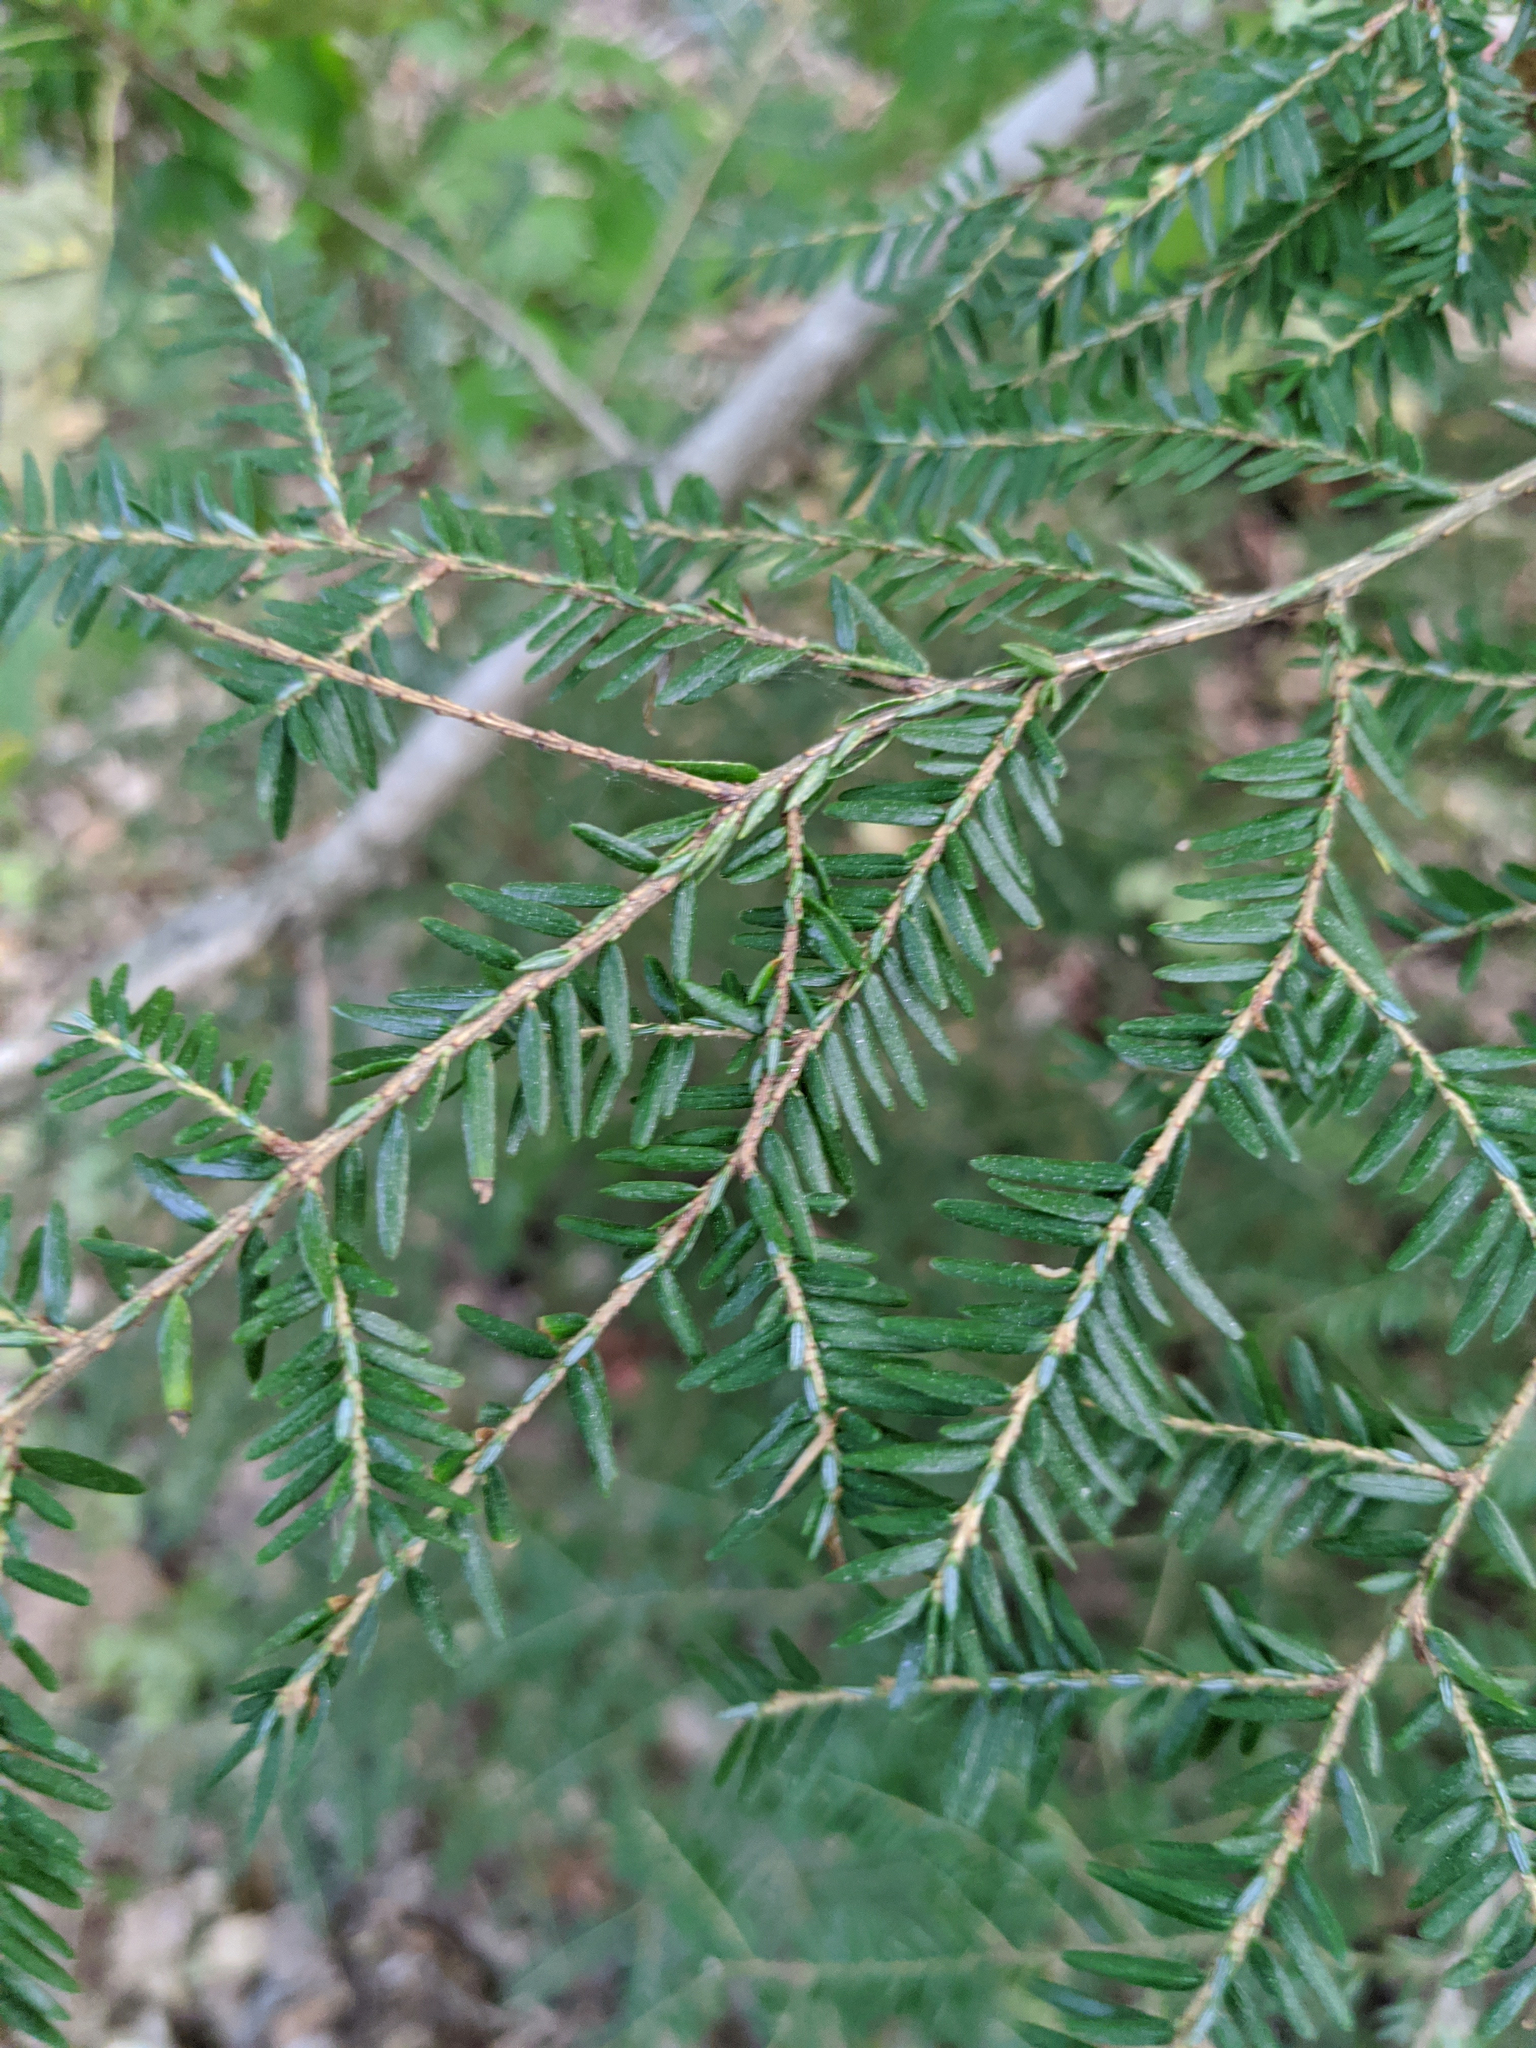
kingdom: Plantae
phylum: Tracheophyta
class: Pinopsida
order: Pinales
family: Pinaceae
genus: Tsuga
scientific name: Tsuga canadensis
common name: Eastern hemlock
